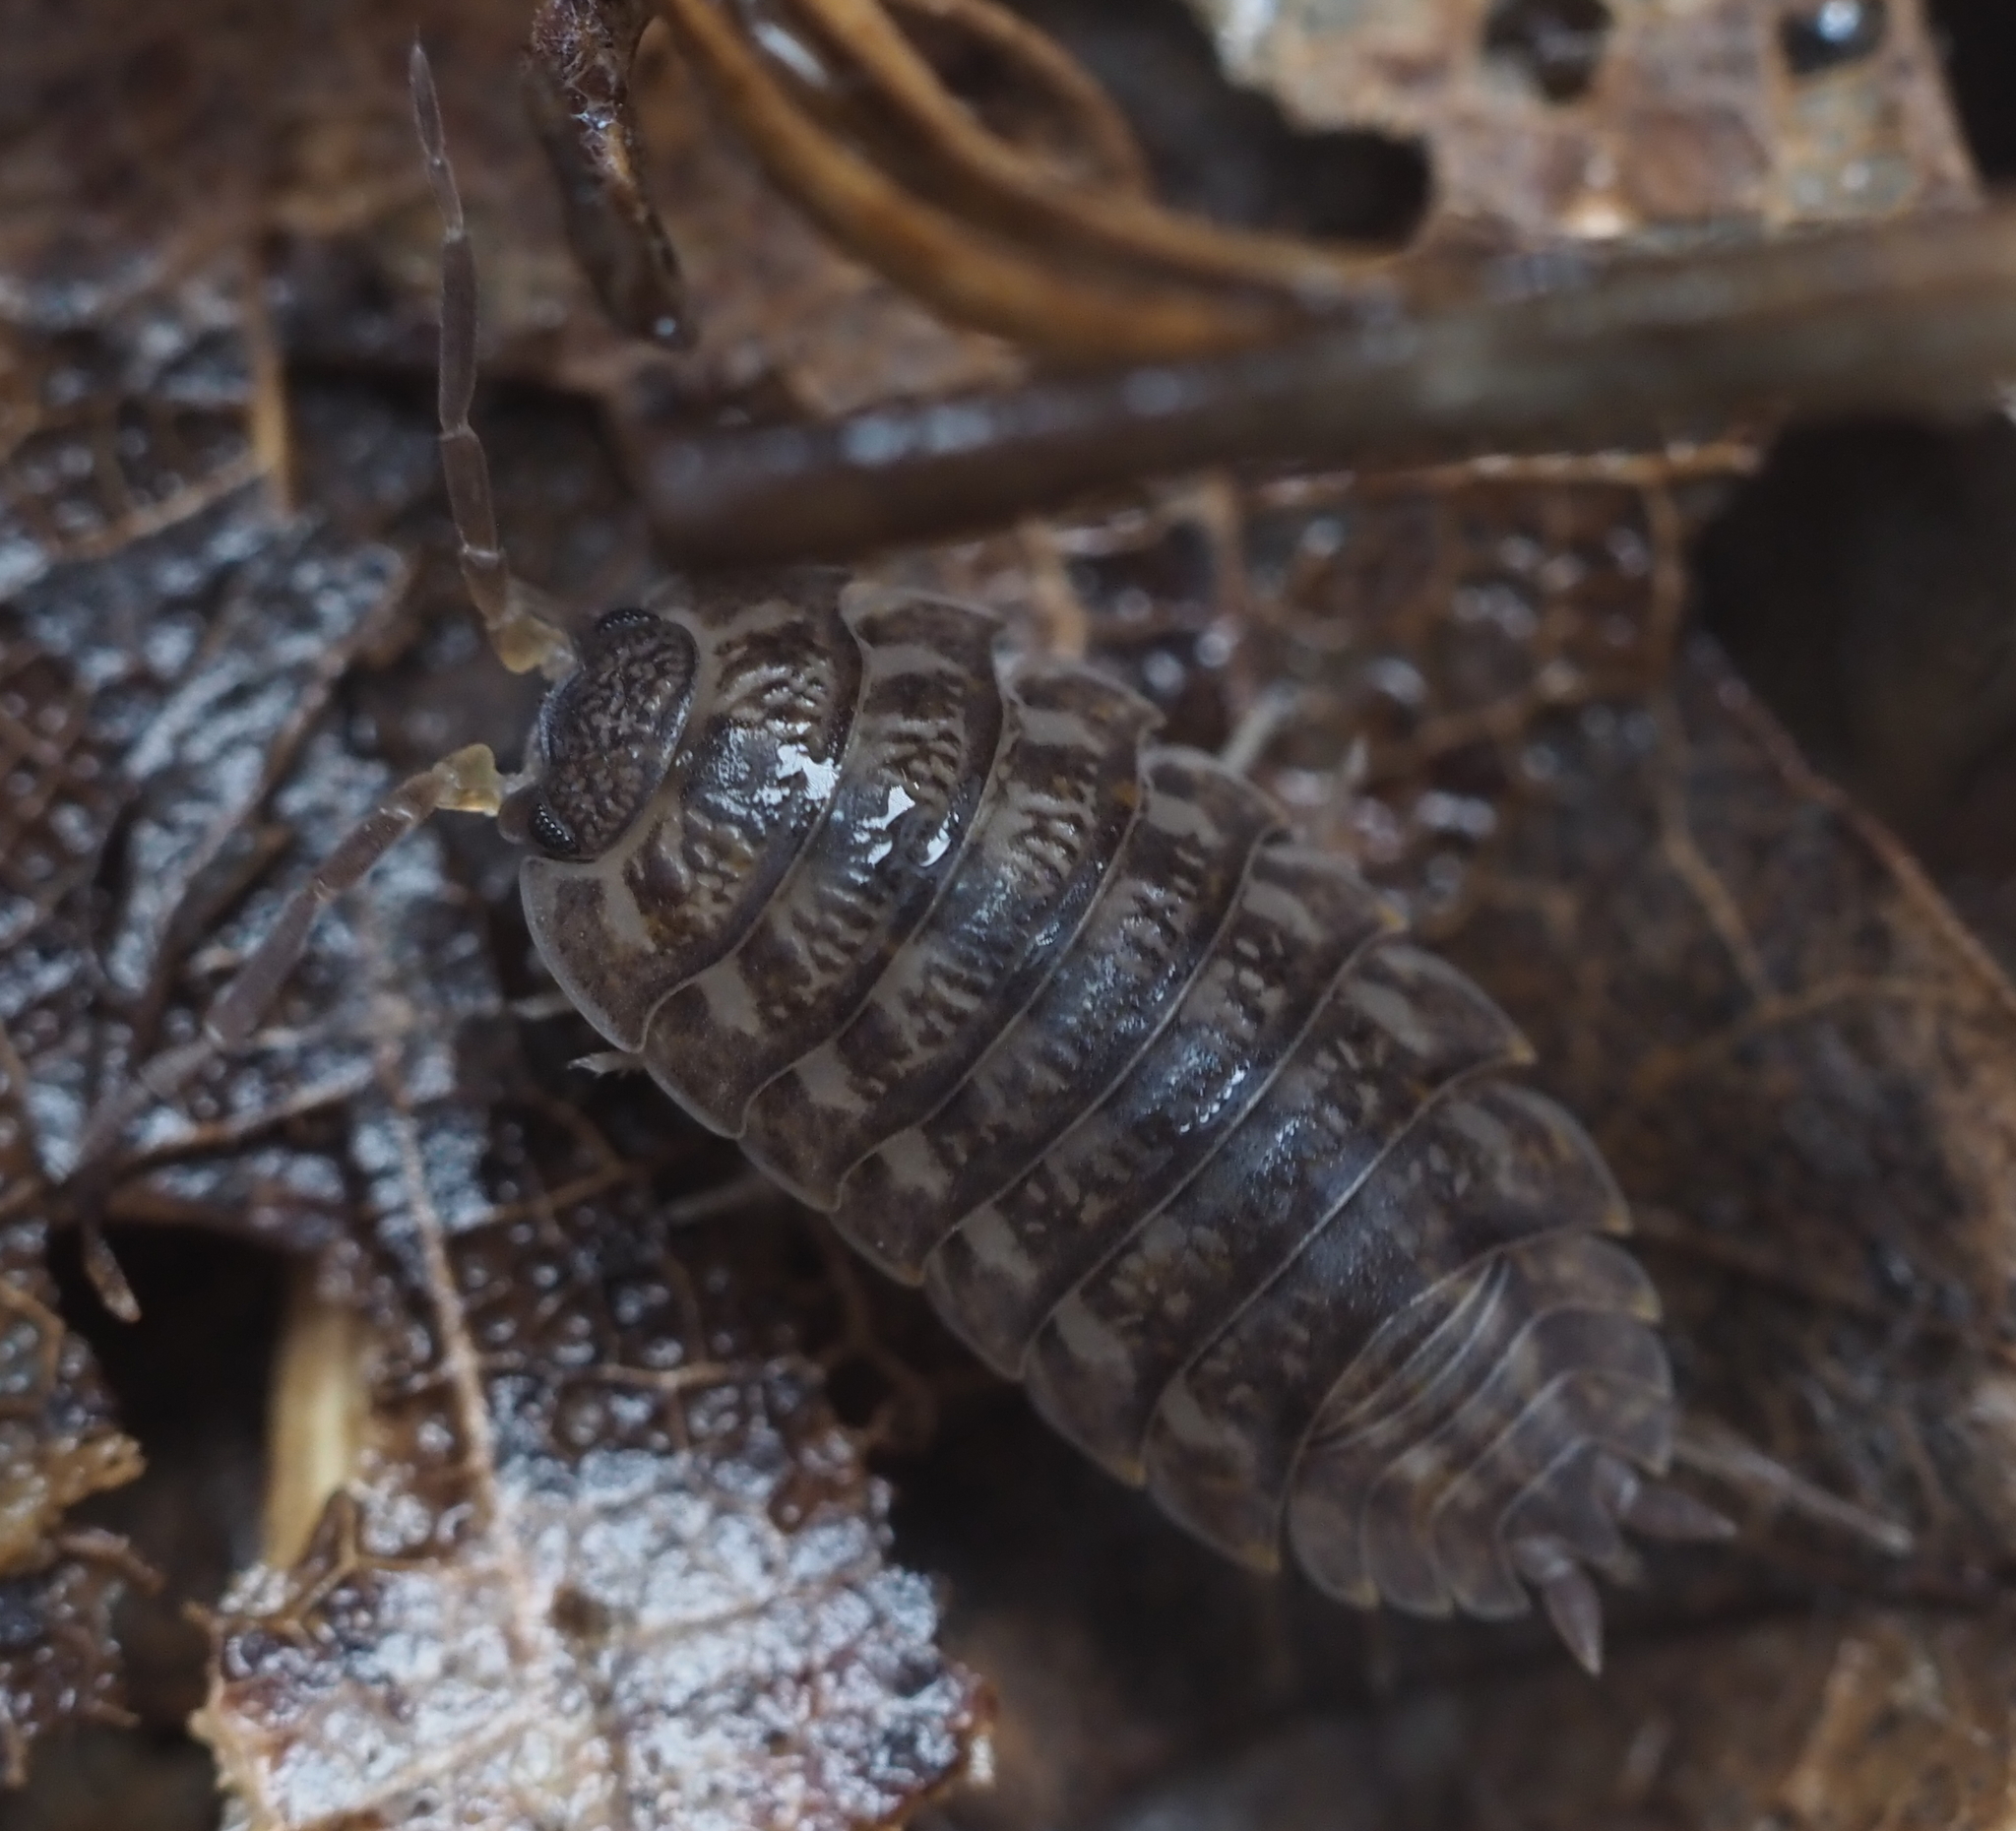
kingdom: Animalia
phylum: Arthropoda
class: Malacostraca
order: Isopoda
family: Trachelipodidae
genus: Trachelipus
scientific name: Trachelipus rathkii
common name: Isopod
